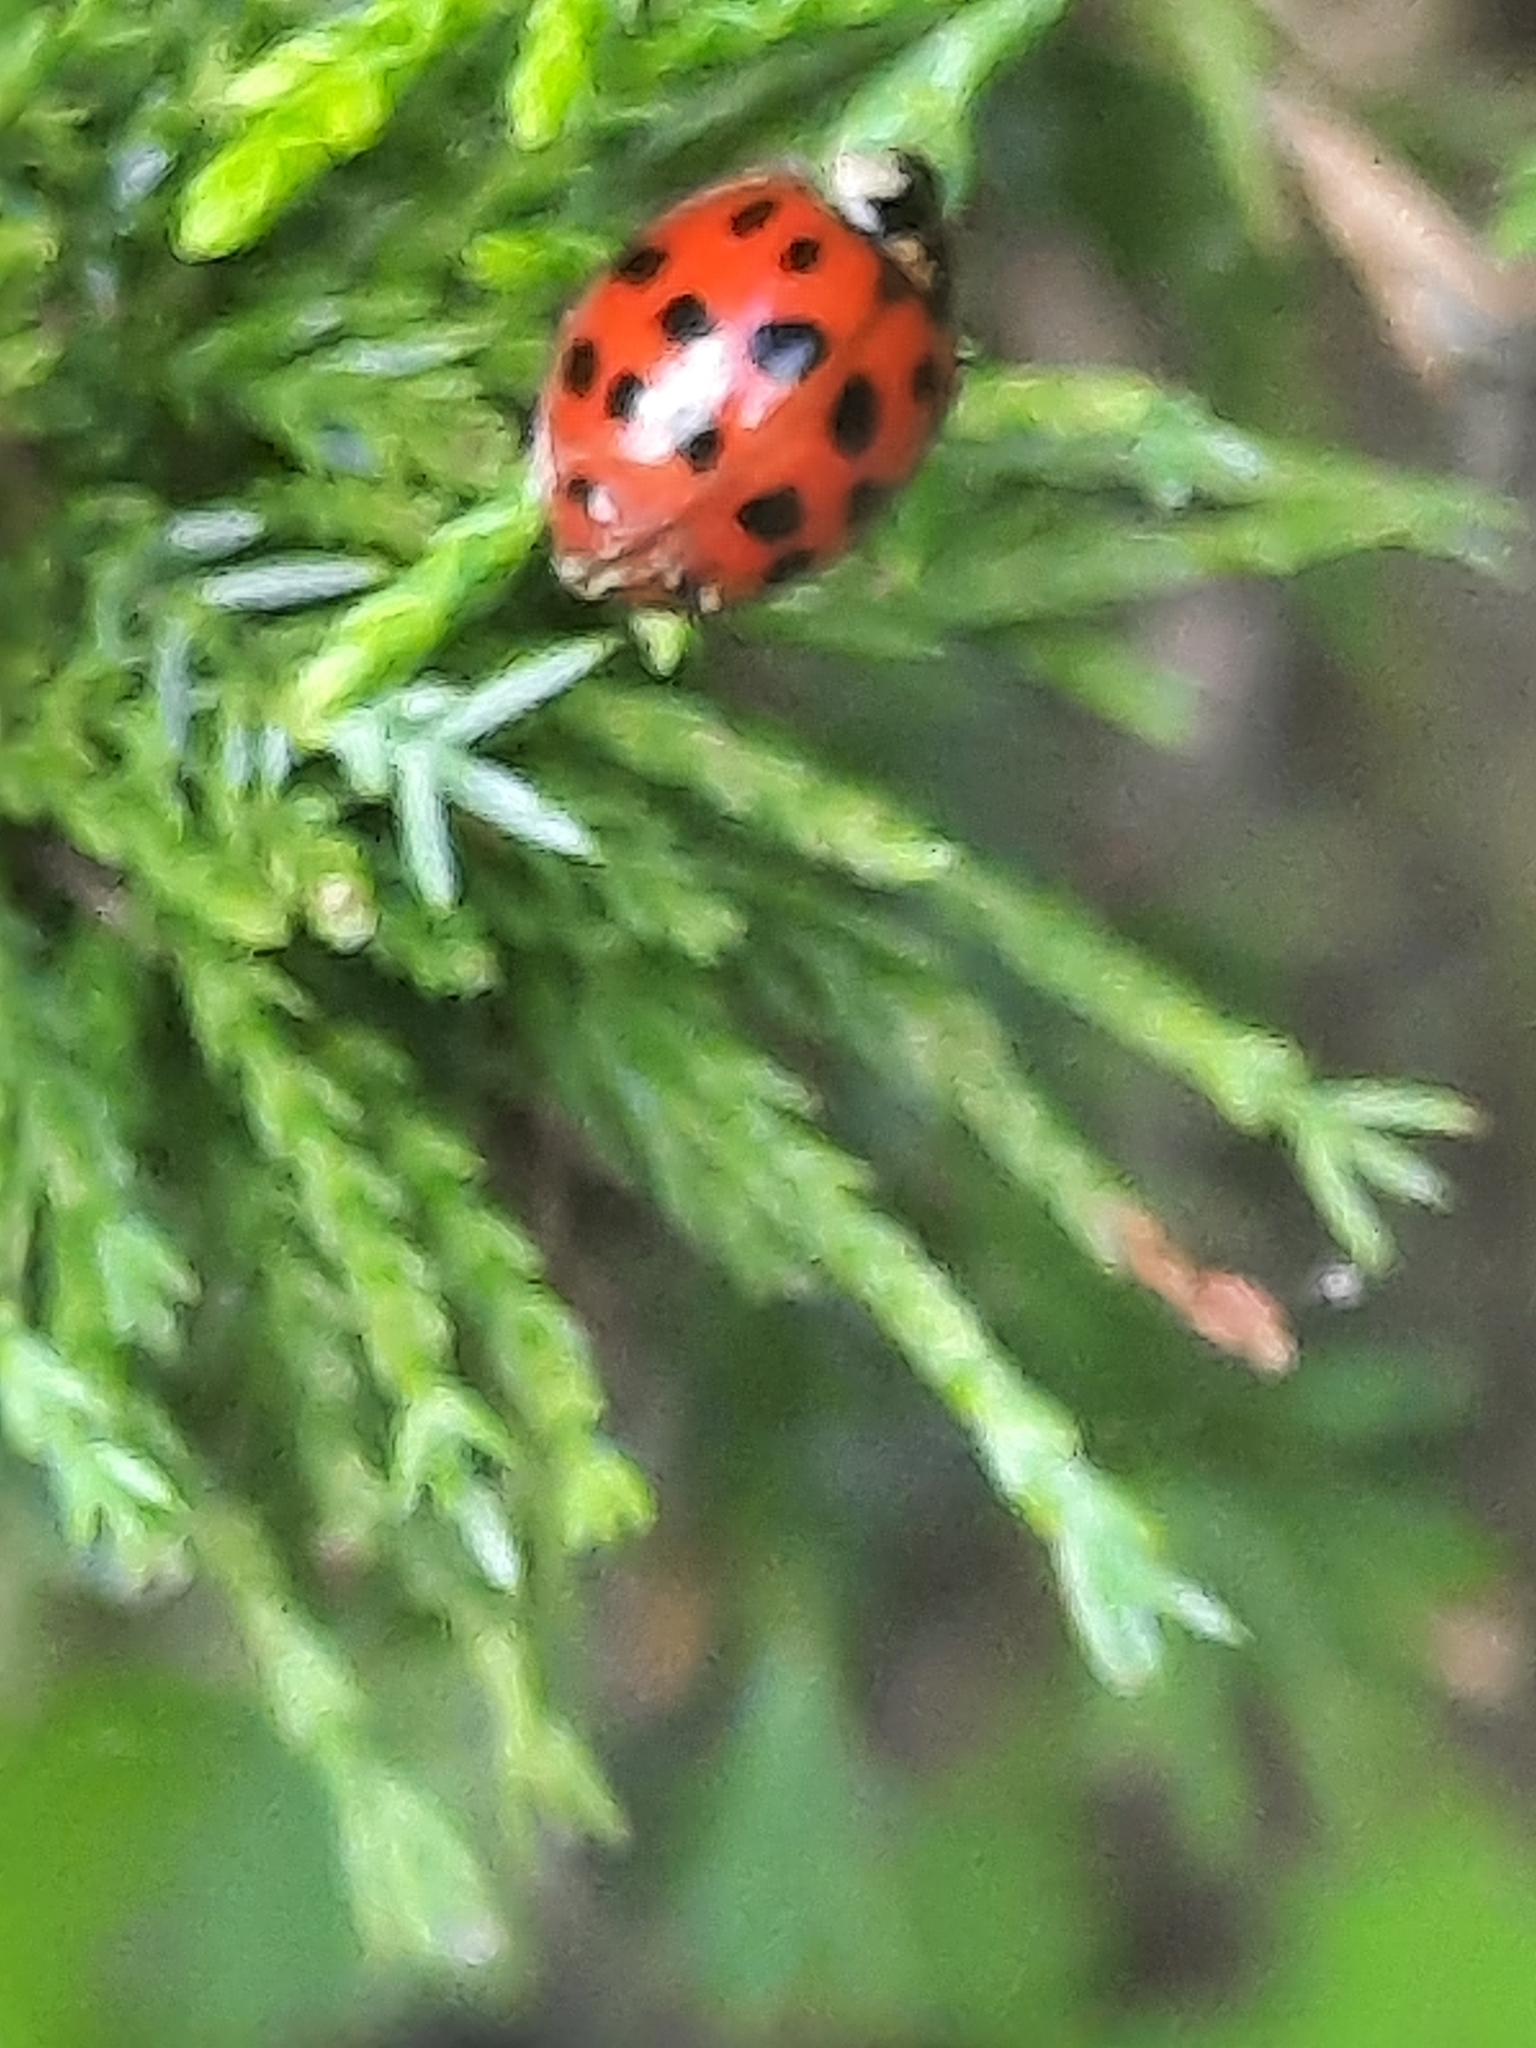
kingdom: Animalia
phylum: Arthropoda
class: Insecta
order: Coleoptera
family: Coccinellidae
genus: Harmonia
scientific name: Harmonia axyridis
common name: Harlequin ladybird
